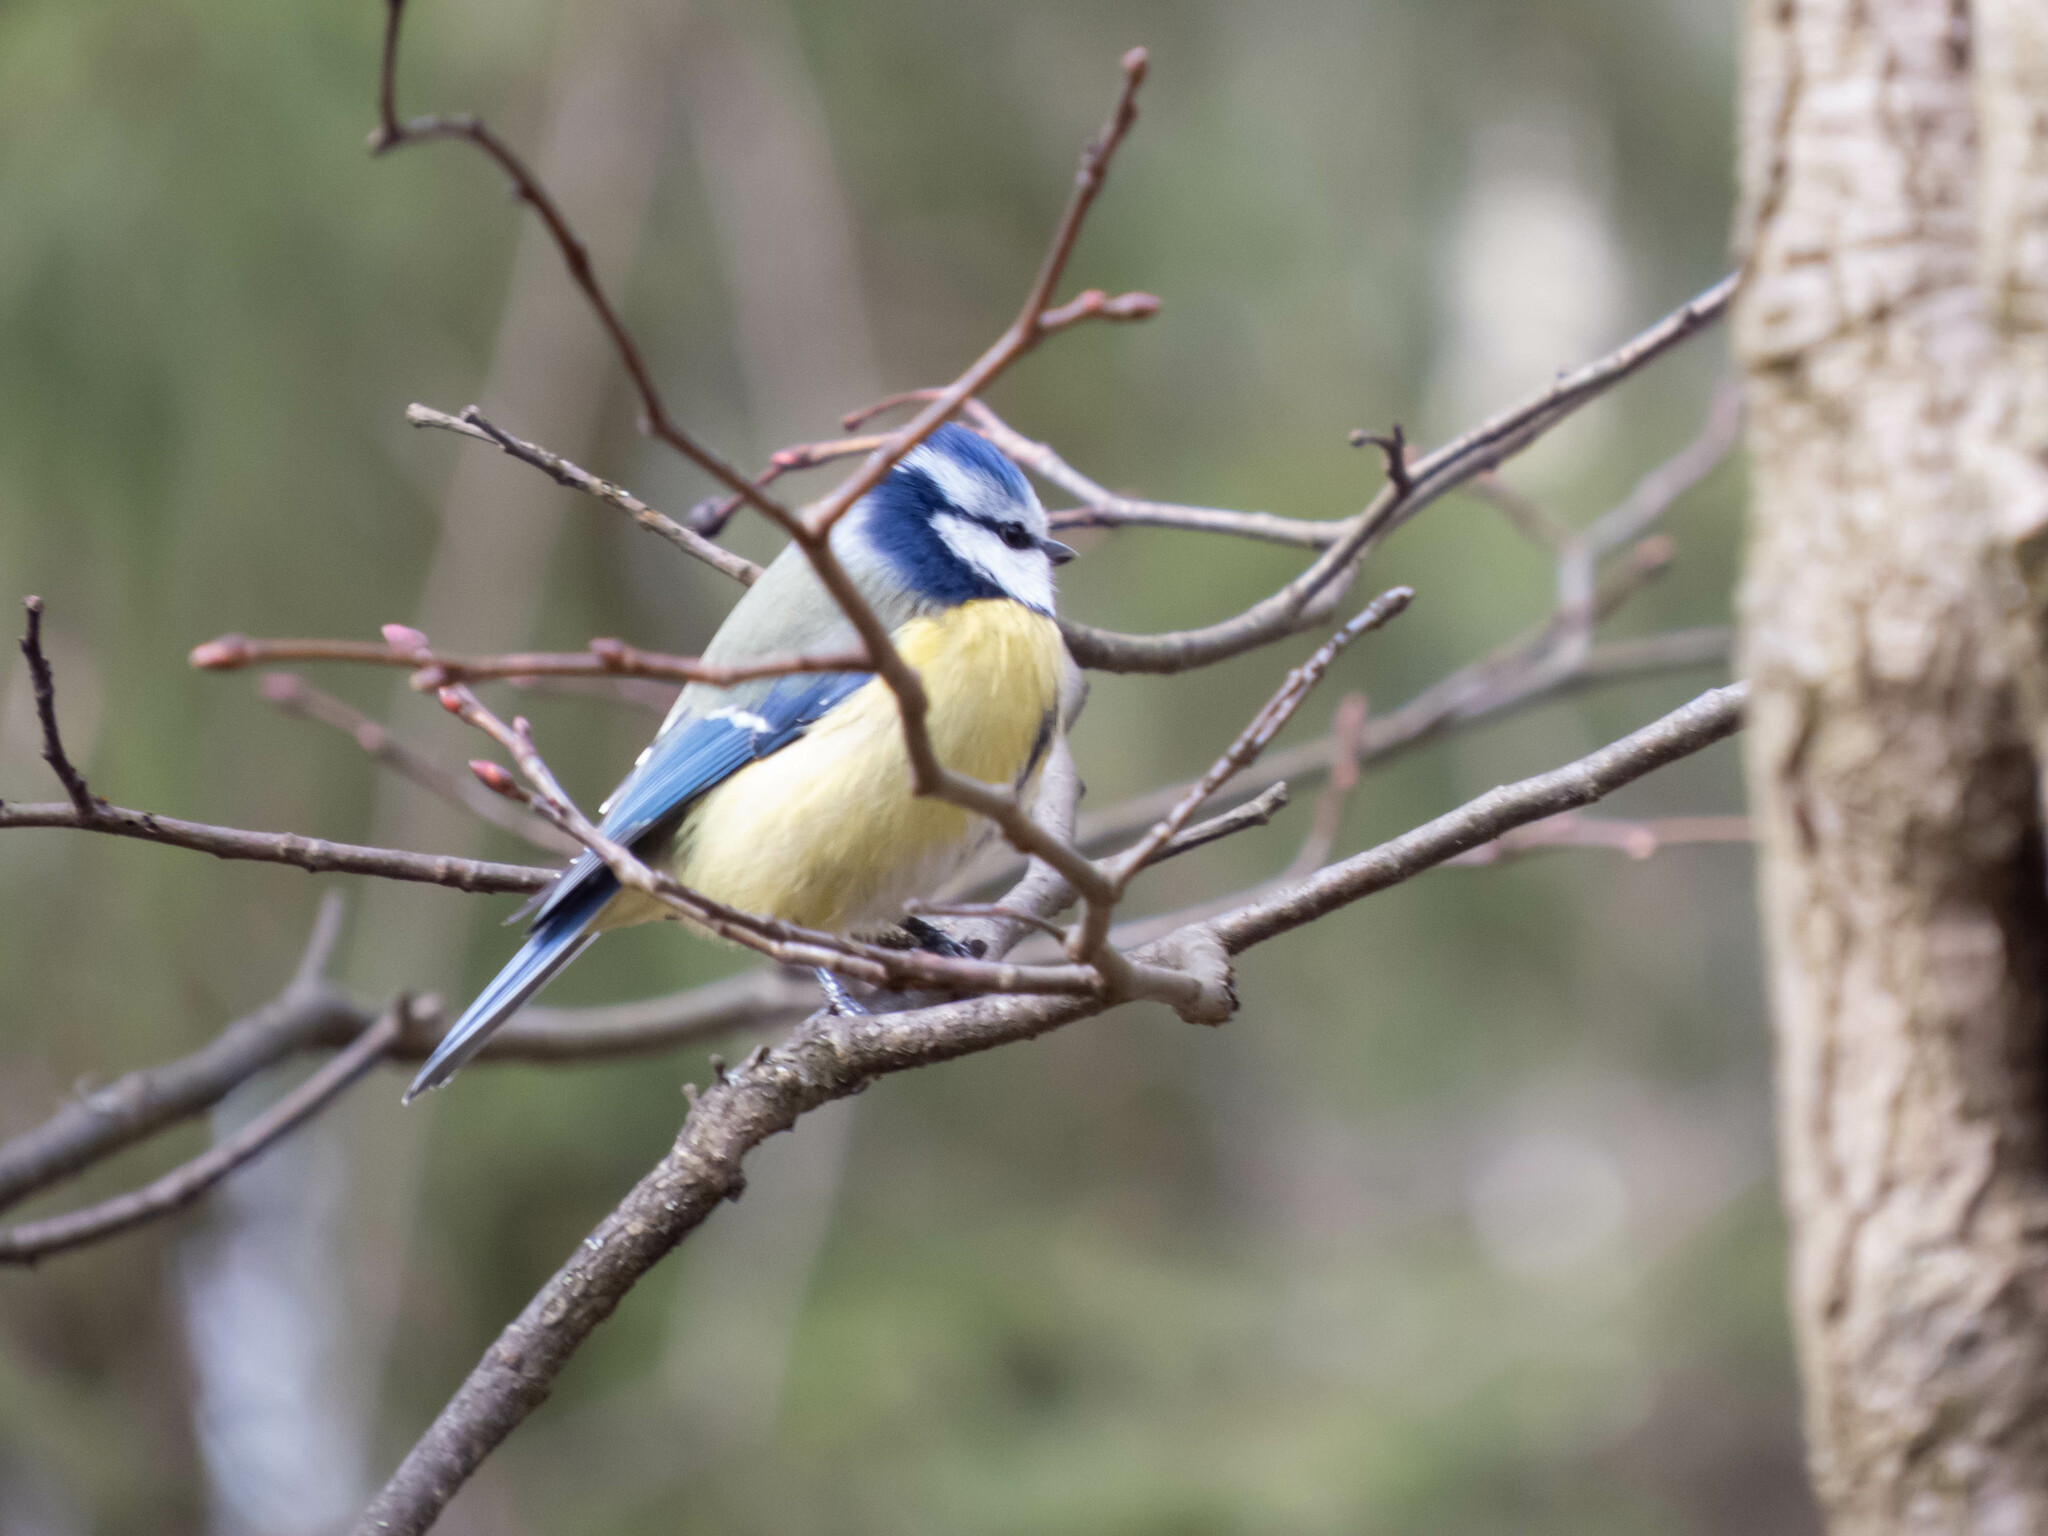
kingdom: Animalia
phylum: Chordata
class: Aves
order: Passeriformes
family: Paridae
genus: Cyanistes
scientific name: Cyanistes caeruleus
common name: Eurasian blue tit
